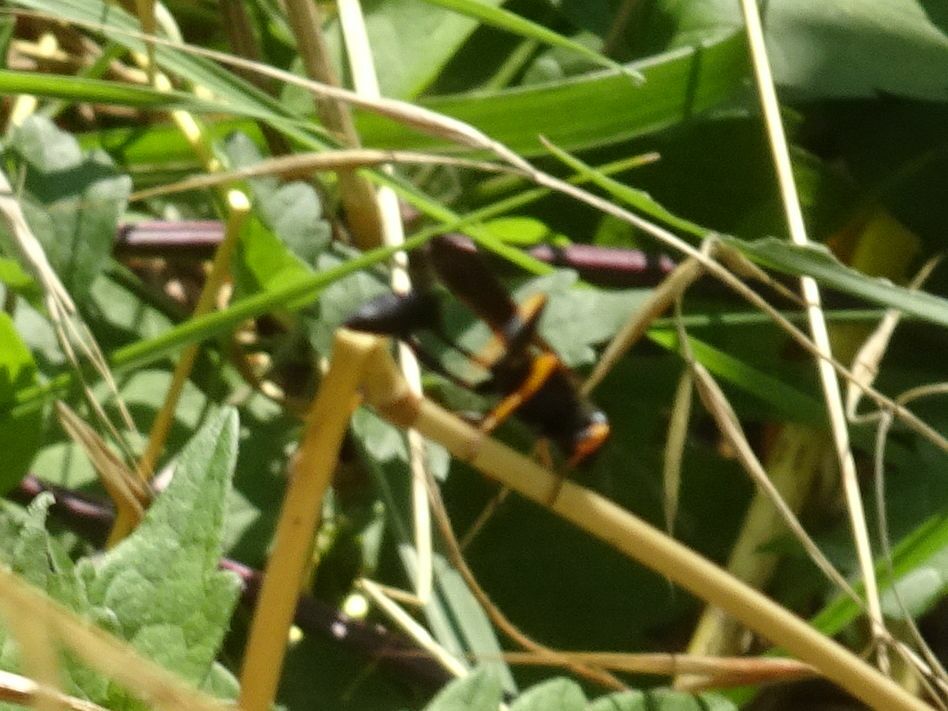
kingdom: Animalia
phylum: Arthropoda
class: Insecta
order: Hymenoptera
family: Sphecidae
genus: Sceliphron
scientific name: Sceliphron caementarium
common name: Mud dauber
